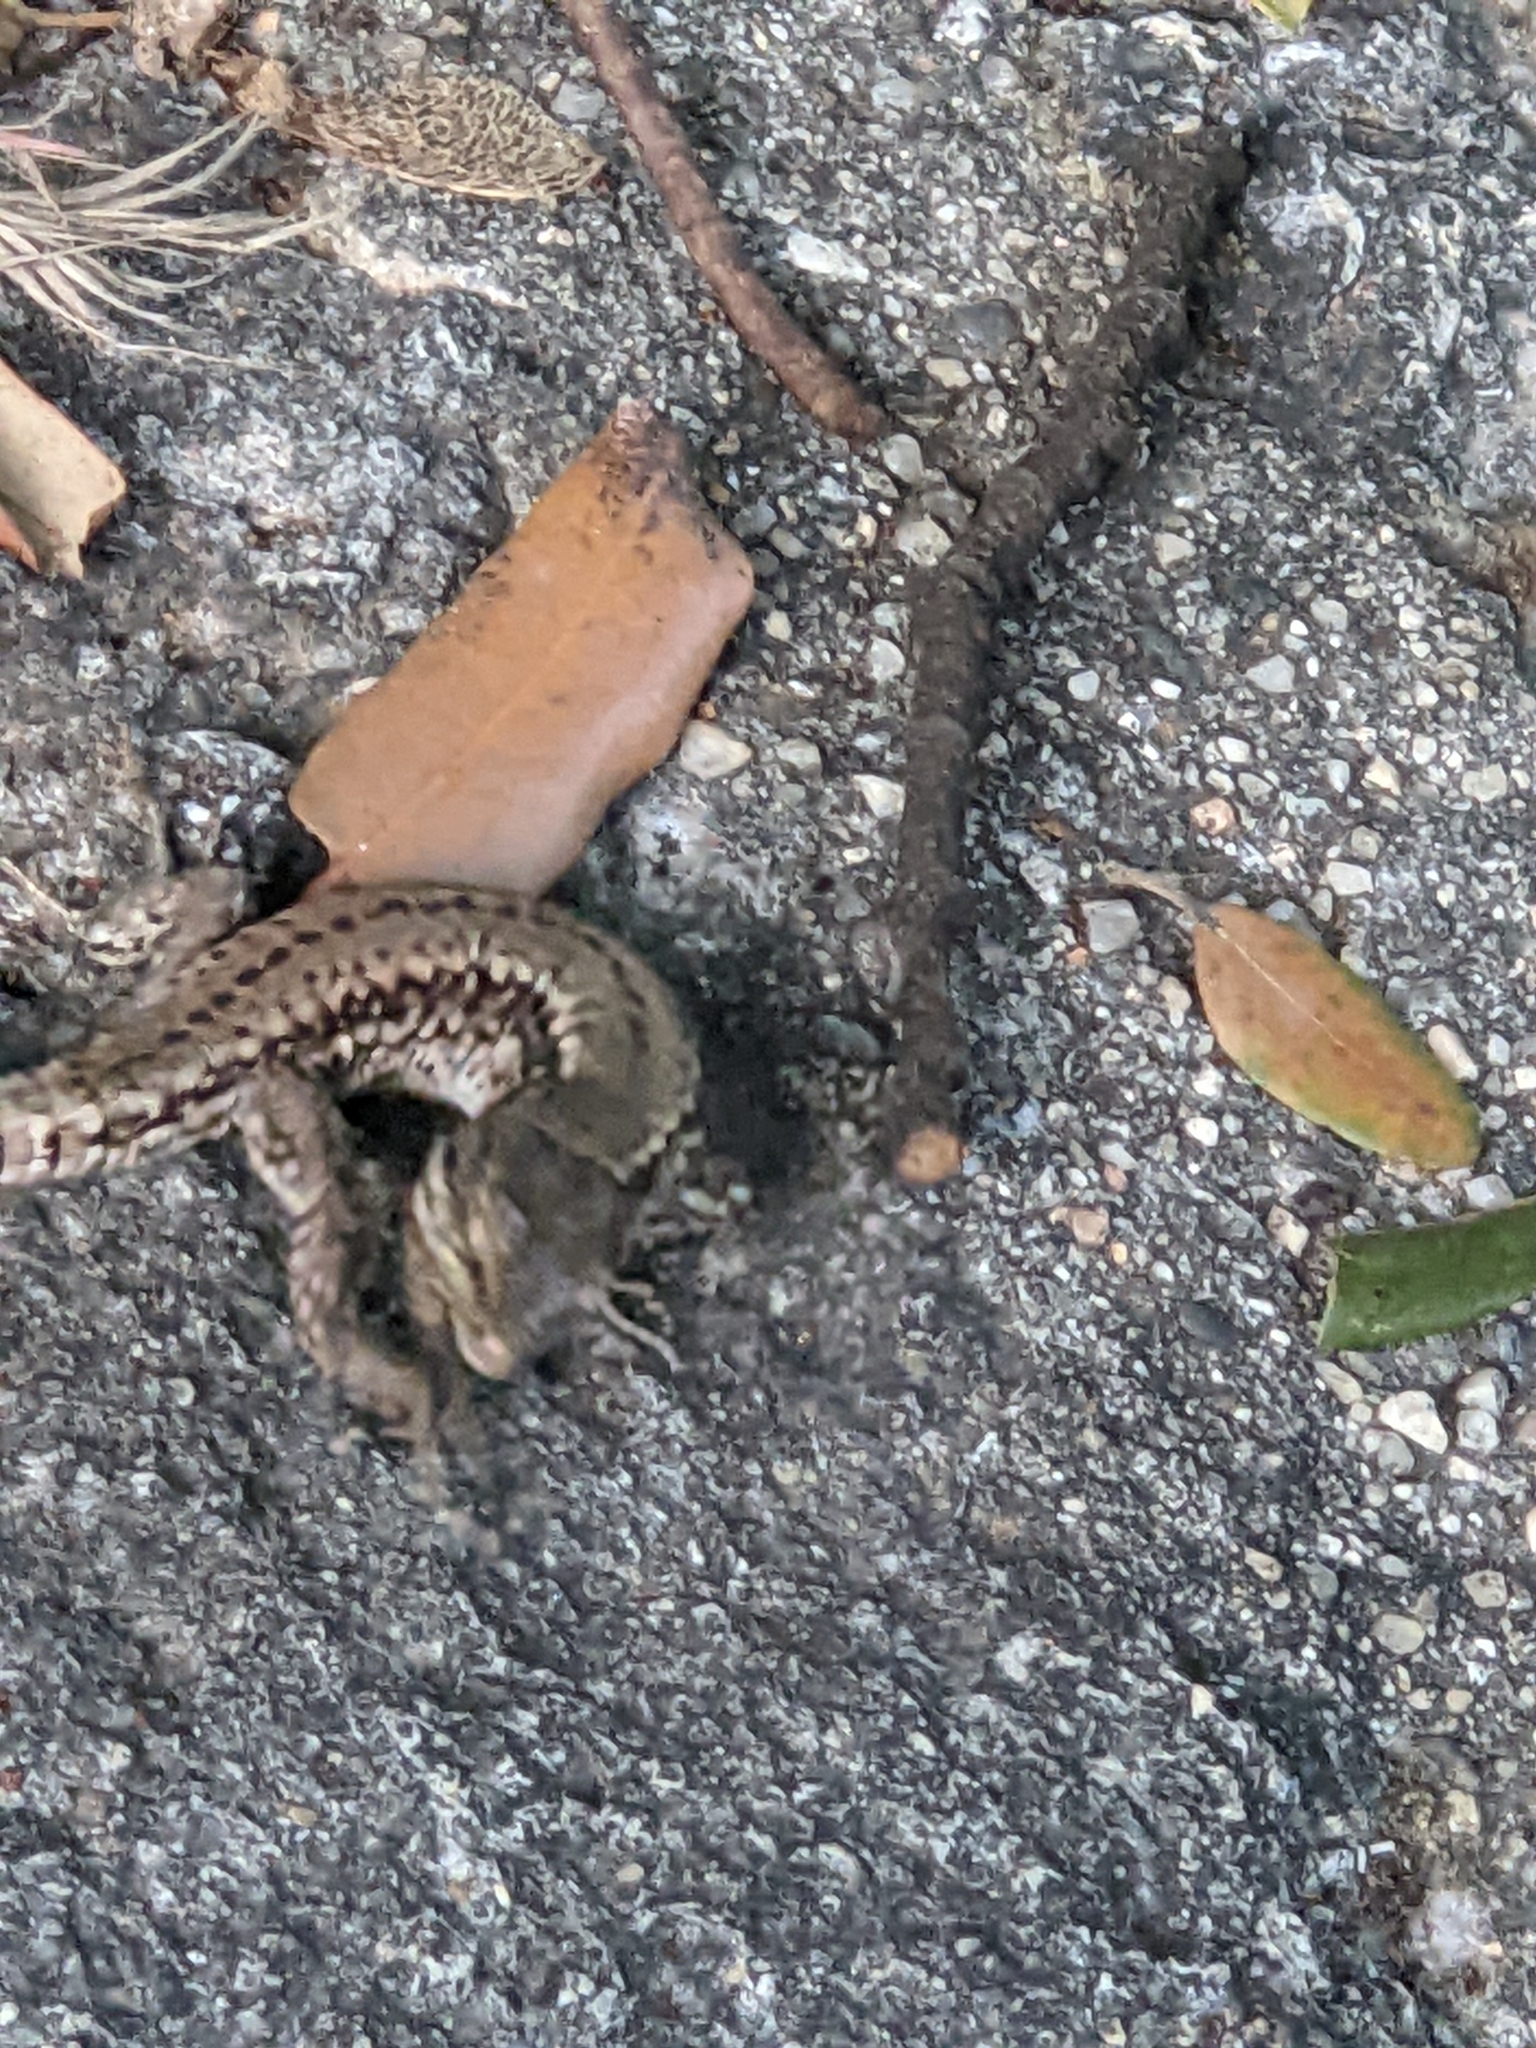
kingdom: Animalia
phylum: Chordata
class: Squamata
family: Lacertidae
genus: Podarcis
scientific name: Podarcis muralis
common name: Common wall lizard
